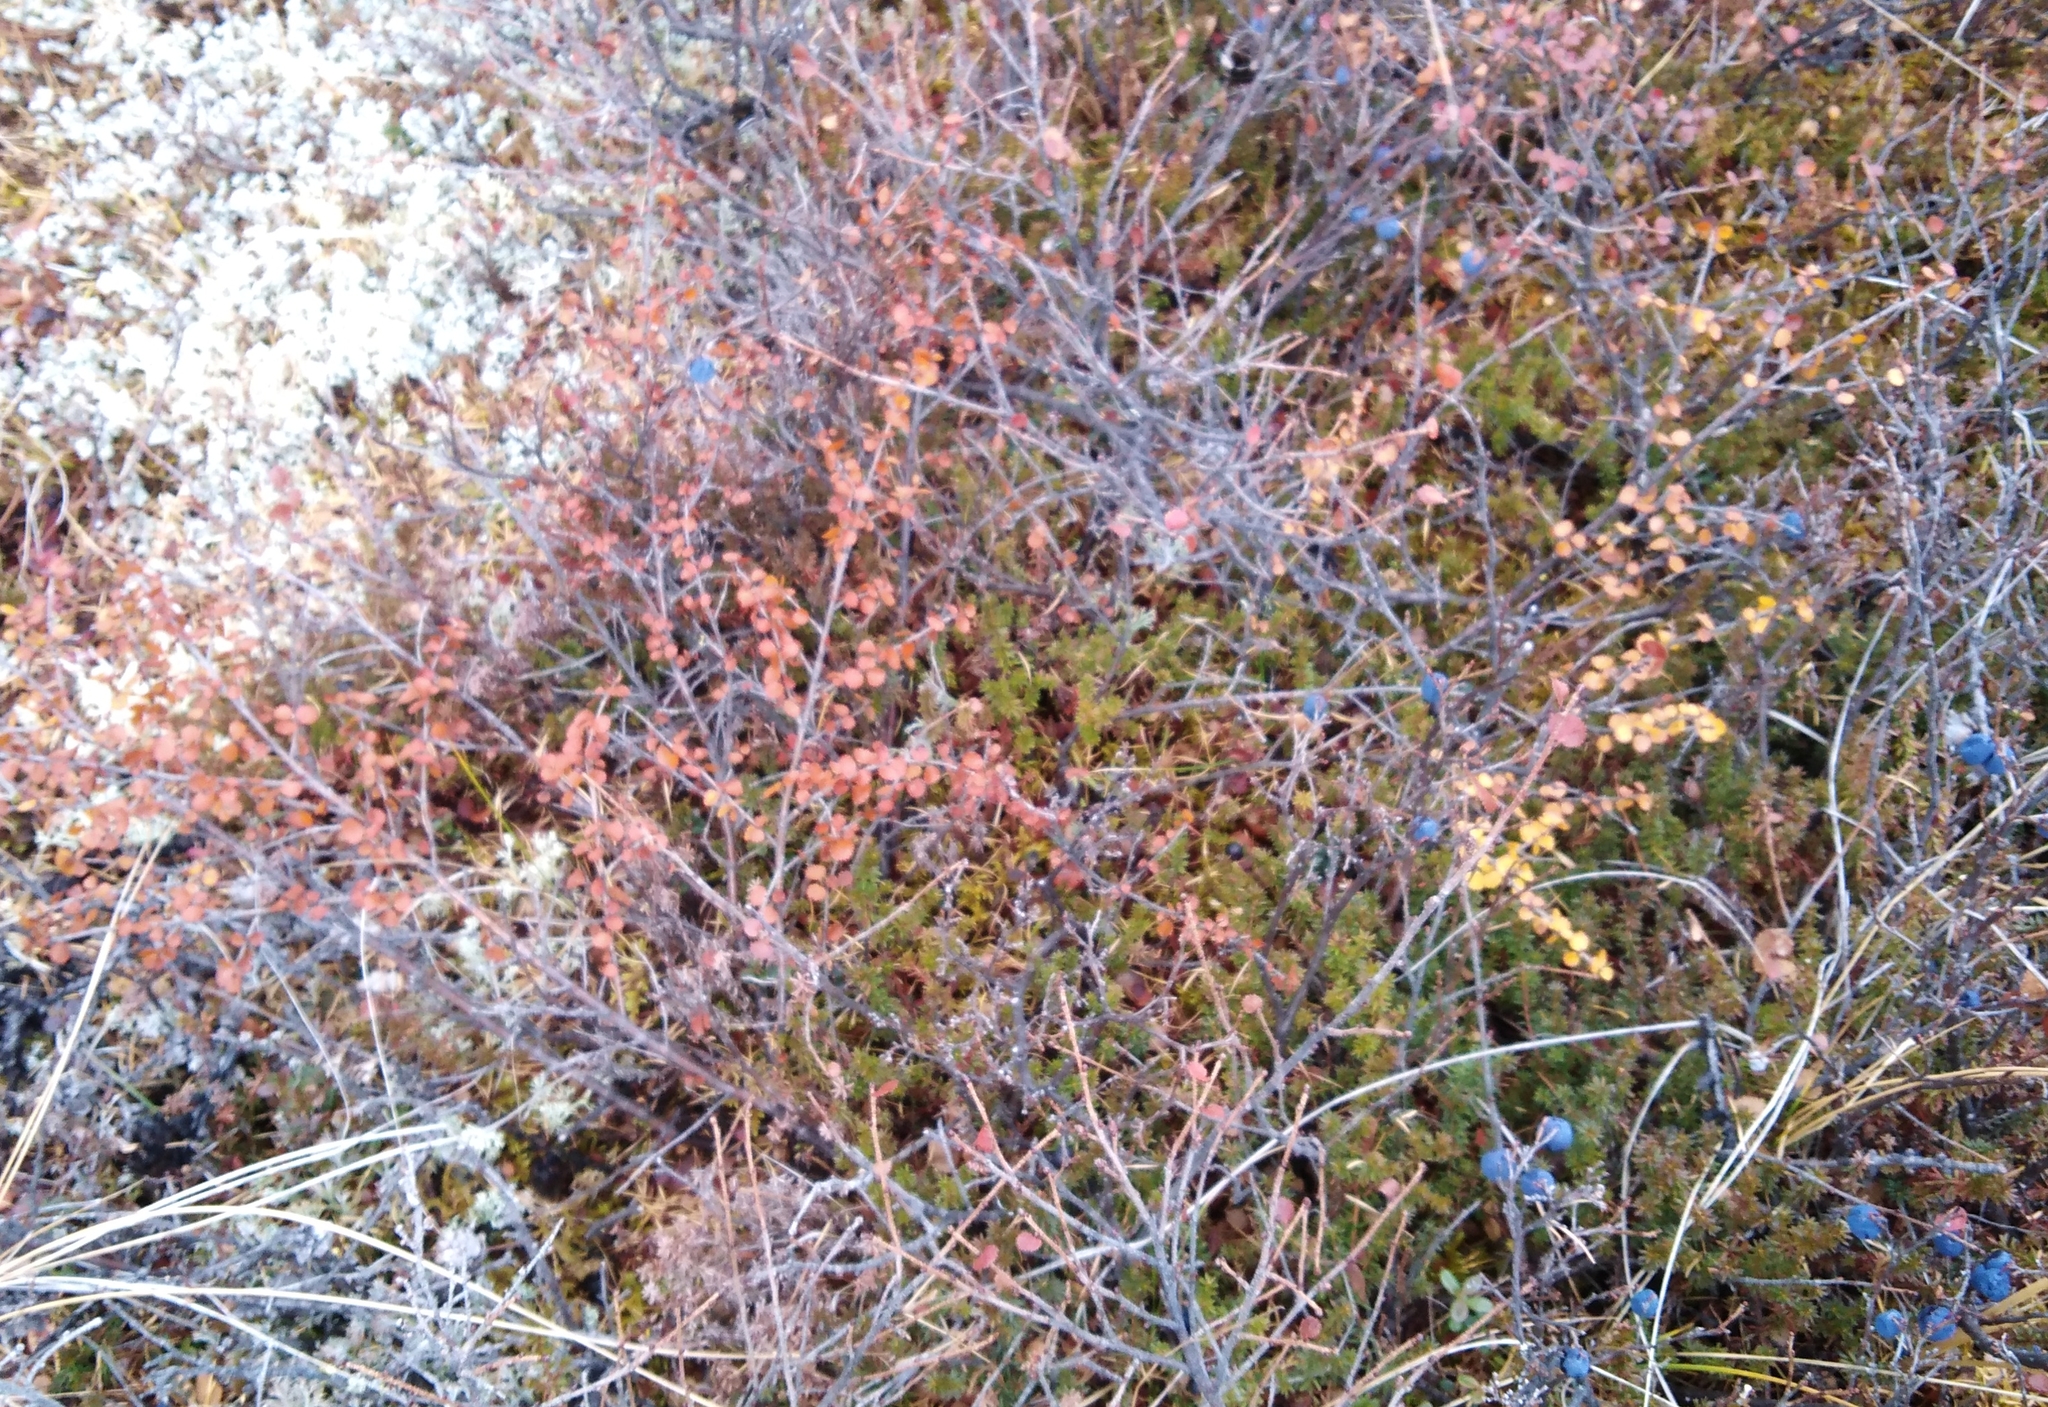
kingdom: Plantae
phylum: Tracheophyta
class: Magnoliopsida
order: Fagales
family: Betulaceae
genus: Betula
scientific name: Betula glandulosa
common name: Dwarf birch
